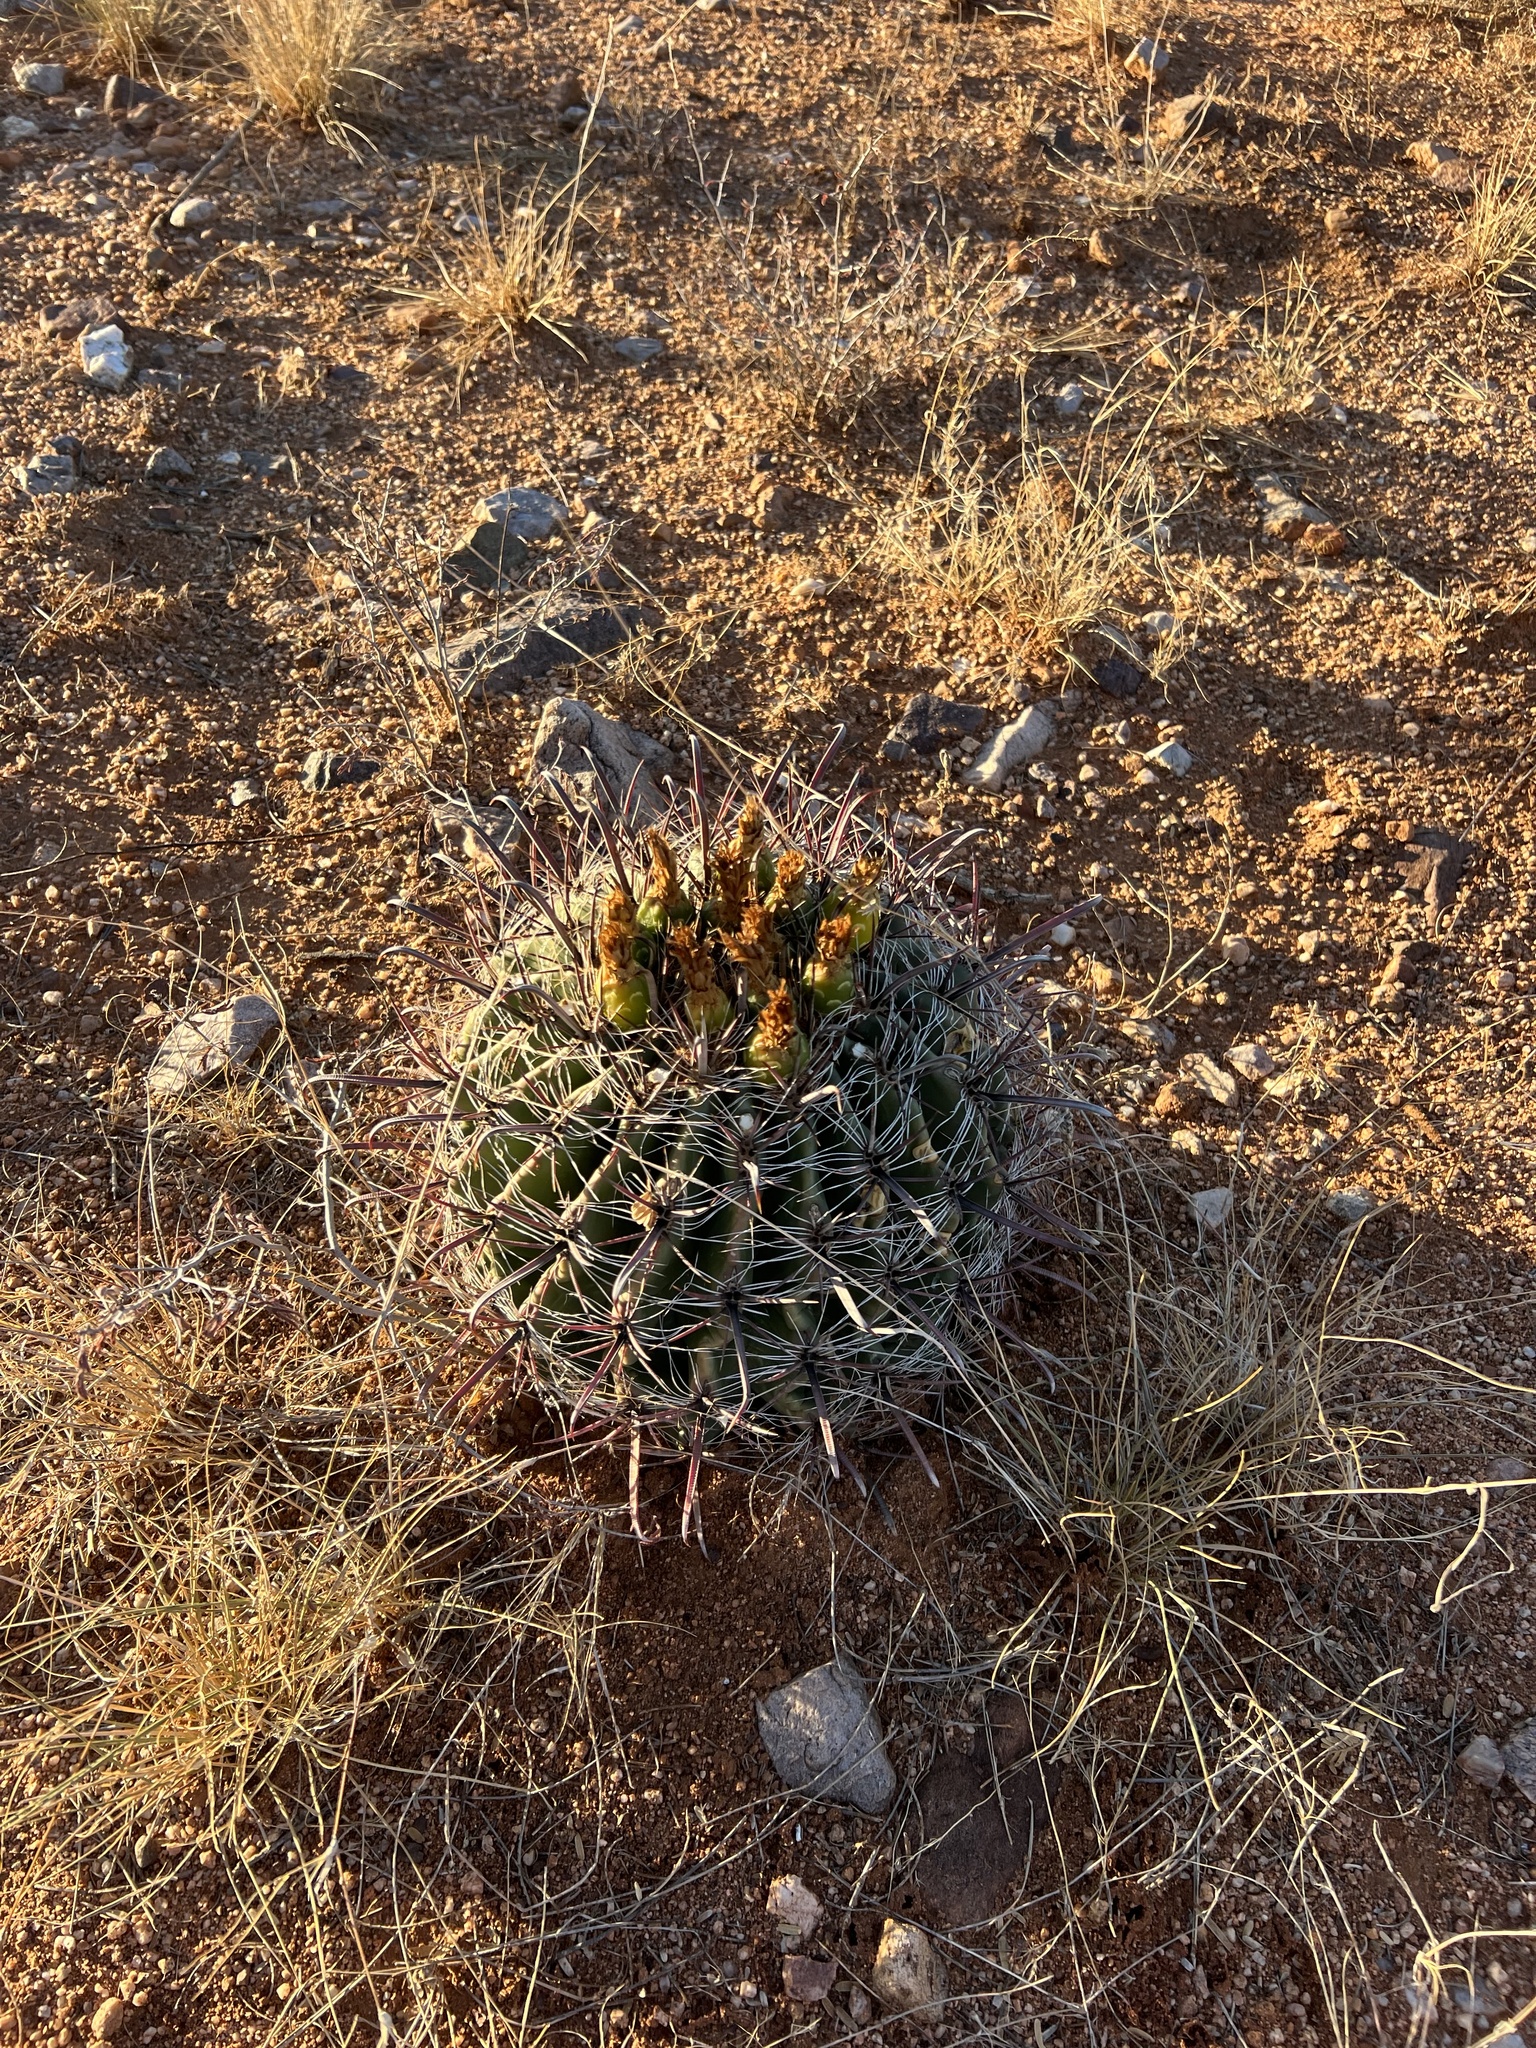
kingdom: Plantae
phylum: Tracheophyta
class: Magnoliopsida
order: Caryophyllales
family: Cactaceae
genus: Ferocactus
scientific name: Ferocactus wislizeni
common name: Candy barrel cactus
